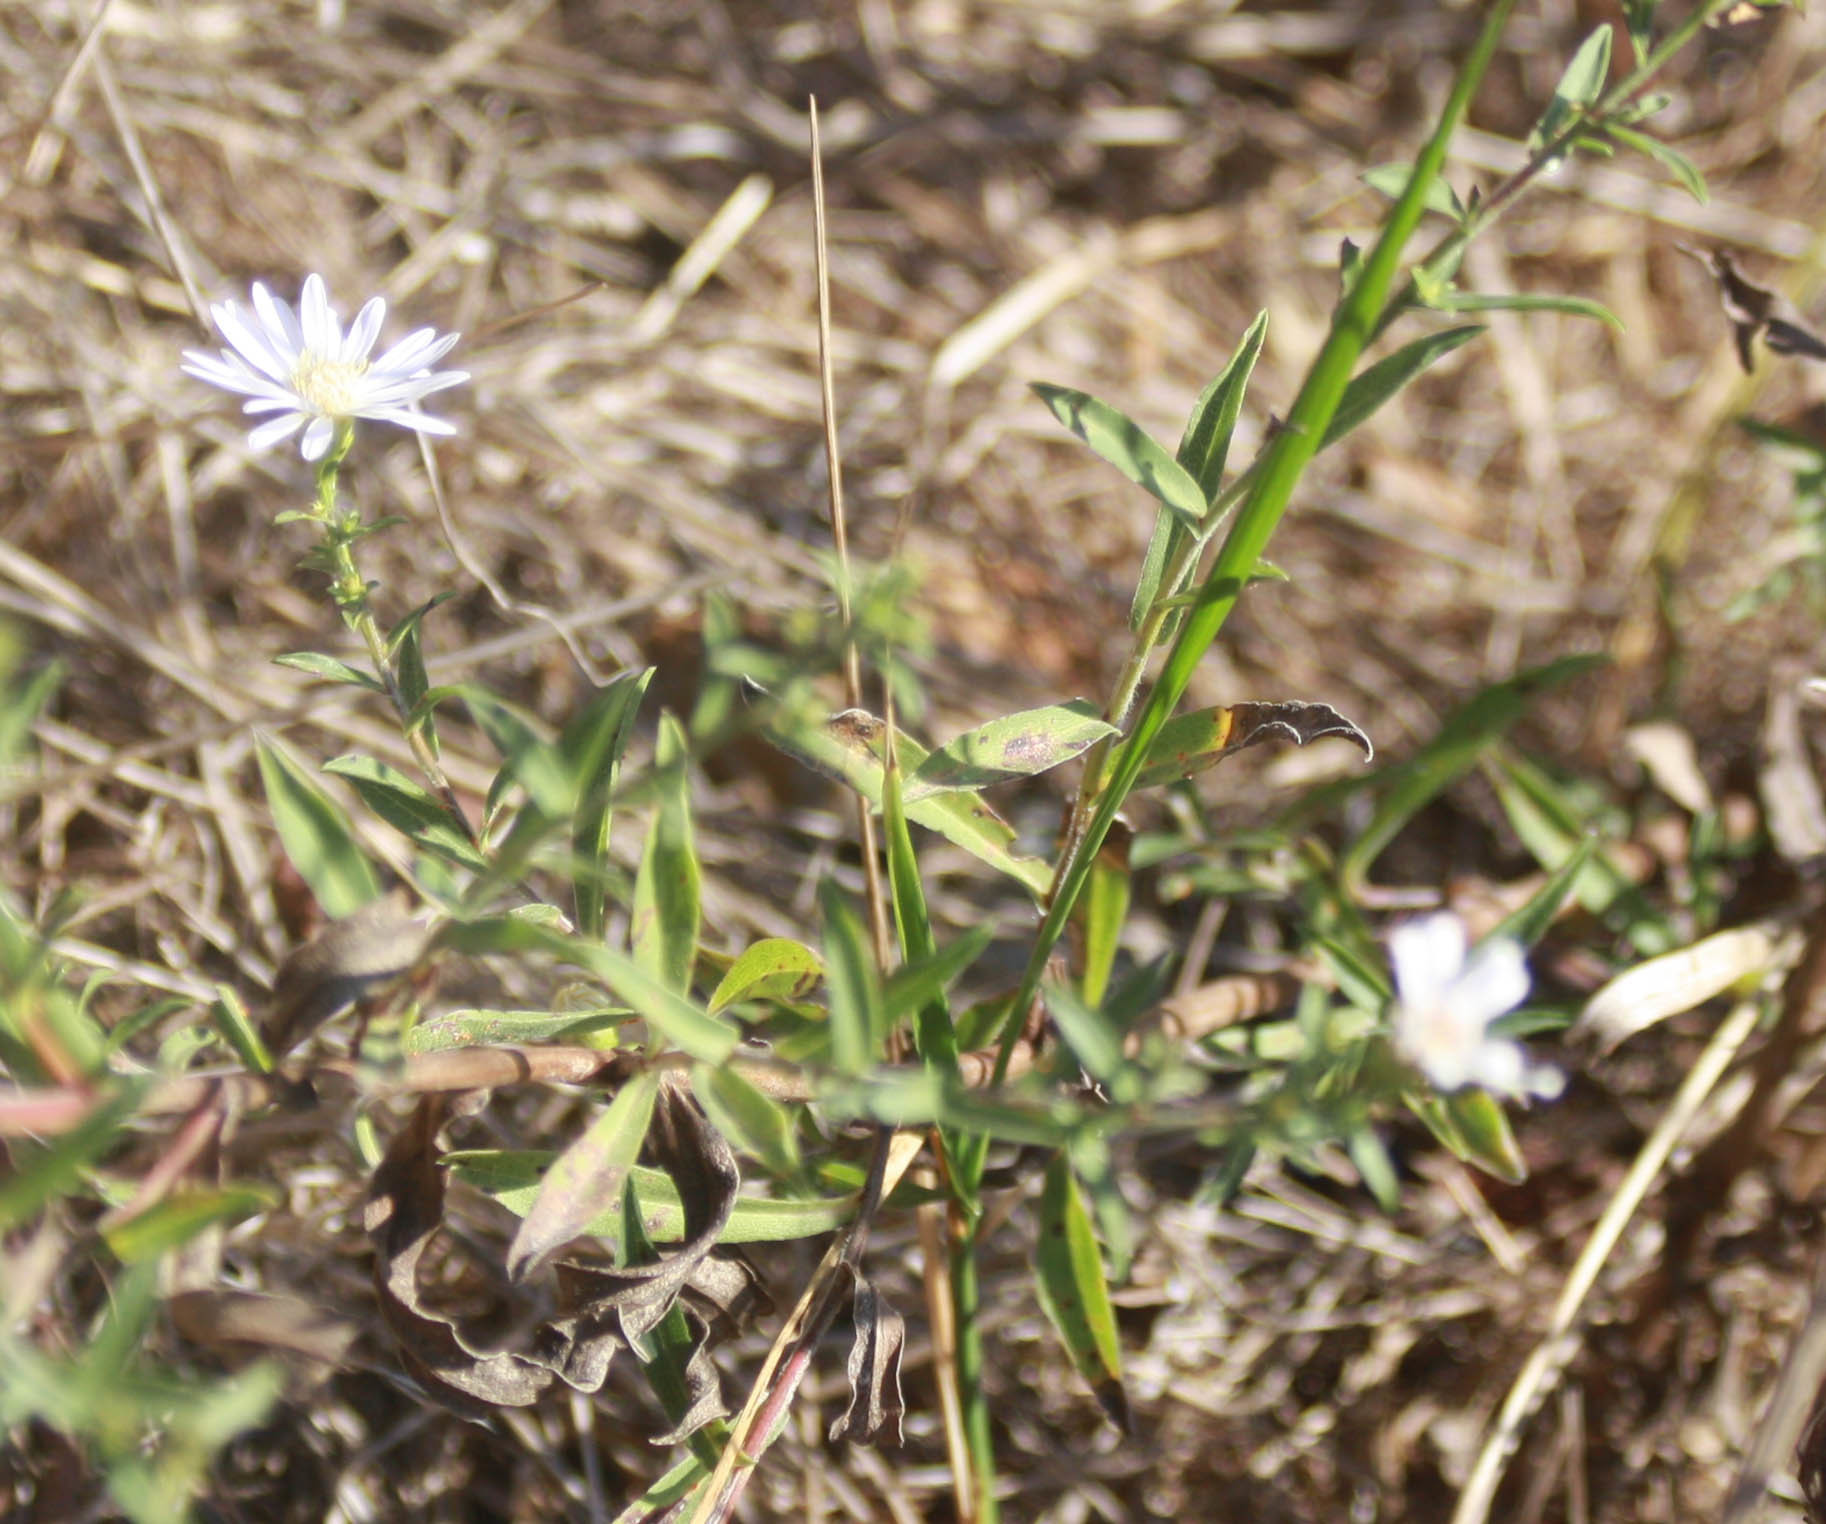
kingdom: Plantae
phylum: Tracheophyta
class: Magnoliopsida
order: Asterales
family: Asteraceae
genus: Symphyotrichum
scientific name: Symphyotrichum
